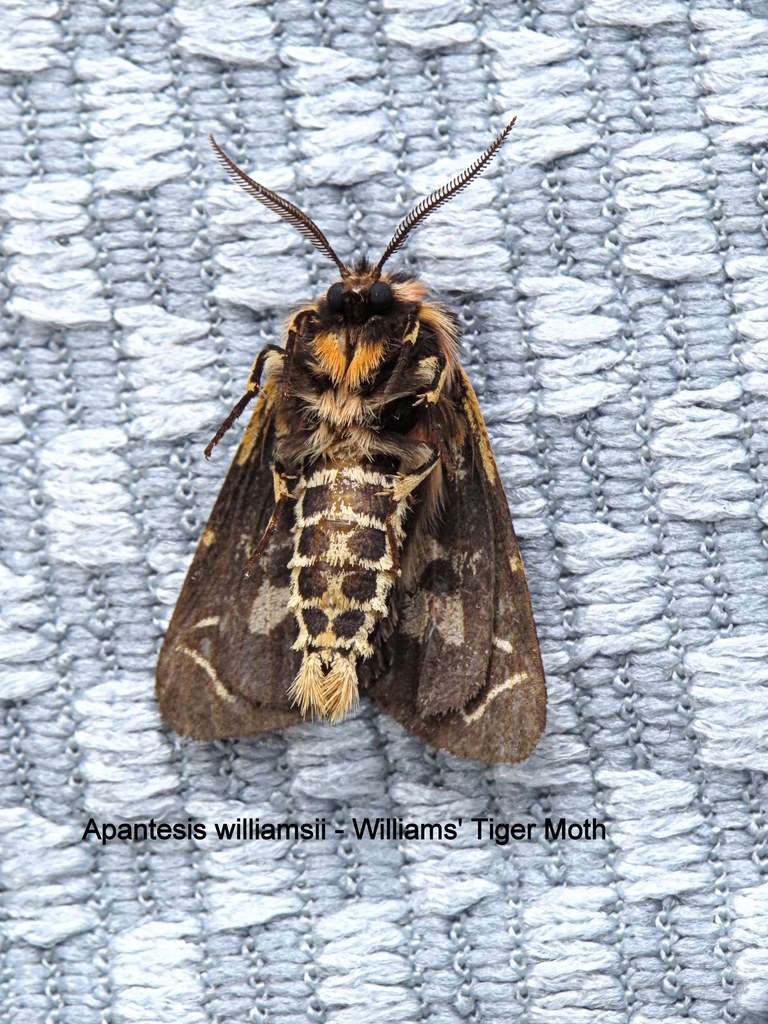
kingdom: Animalia
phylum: Arthropoda
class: Insecta
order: Lepidoptera
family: Erebidae
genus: Apantesis
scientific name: Apantesis
